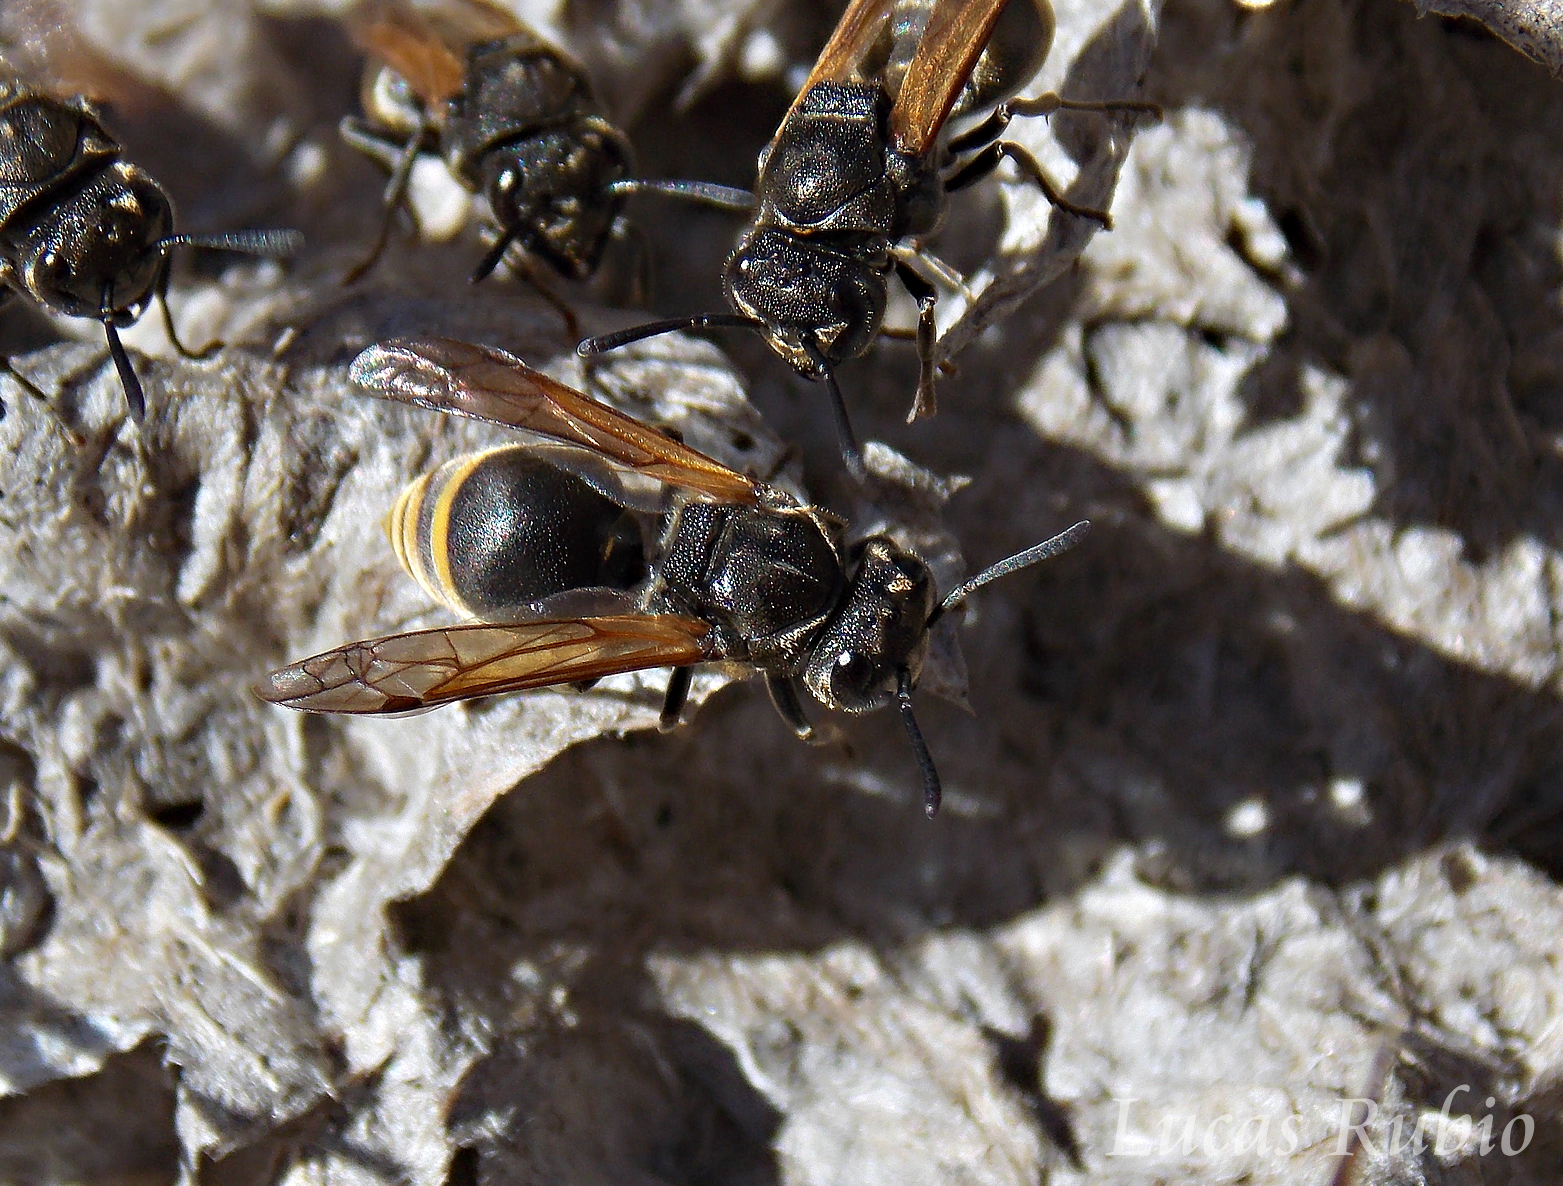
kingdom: Animalia
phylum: Arthropoda
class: Insecta
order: Hymenoptera
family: Vespidae
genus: Brachygastra
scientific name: Brachygastra lecheguana
